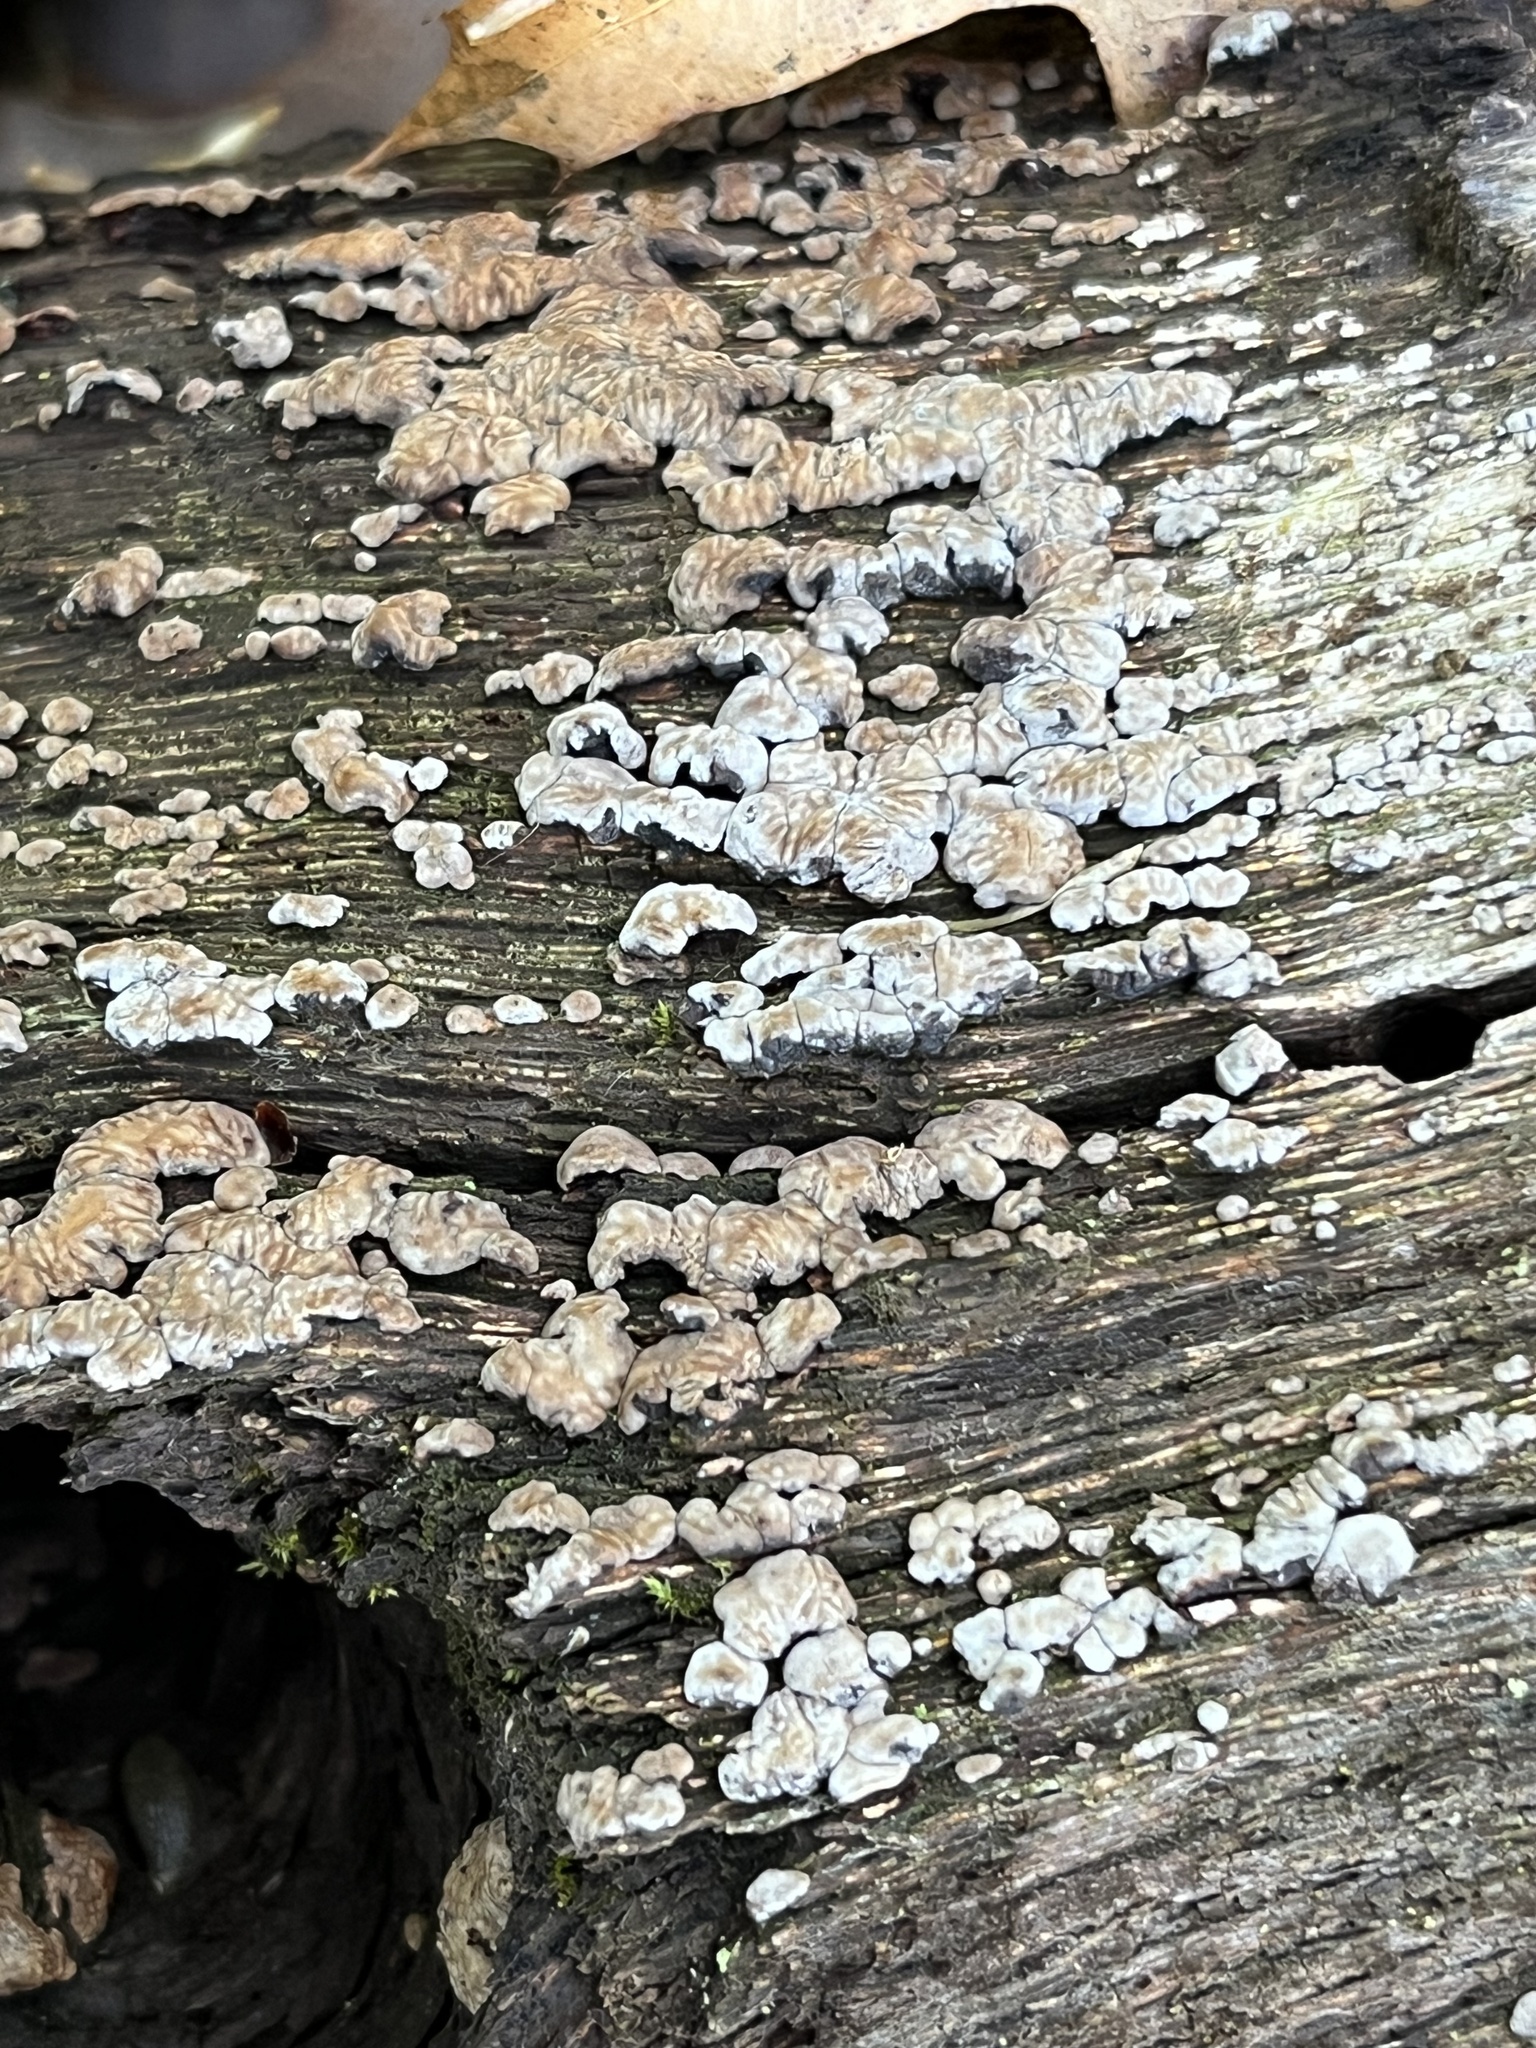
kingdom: Fungi
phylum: Basidiomycota
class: Agaricomycetes
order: Russulales
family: Stereaceae
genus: Xylobolus
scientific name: Xylobolus frustulatus
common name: Ceramic parchment
